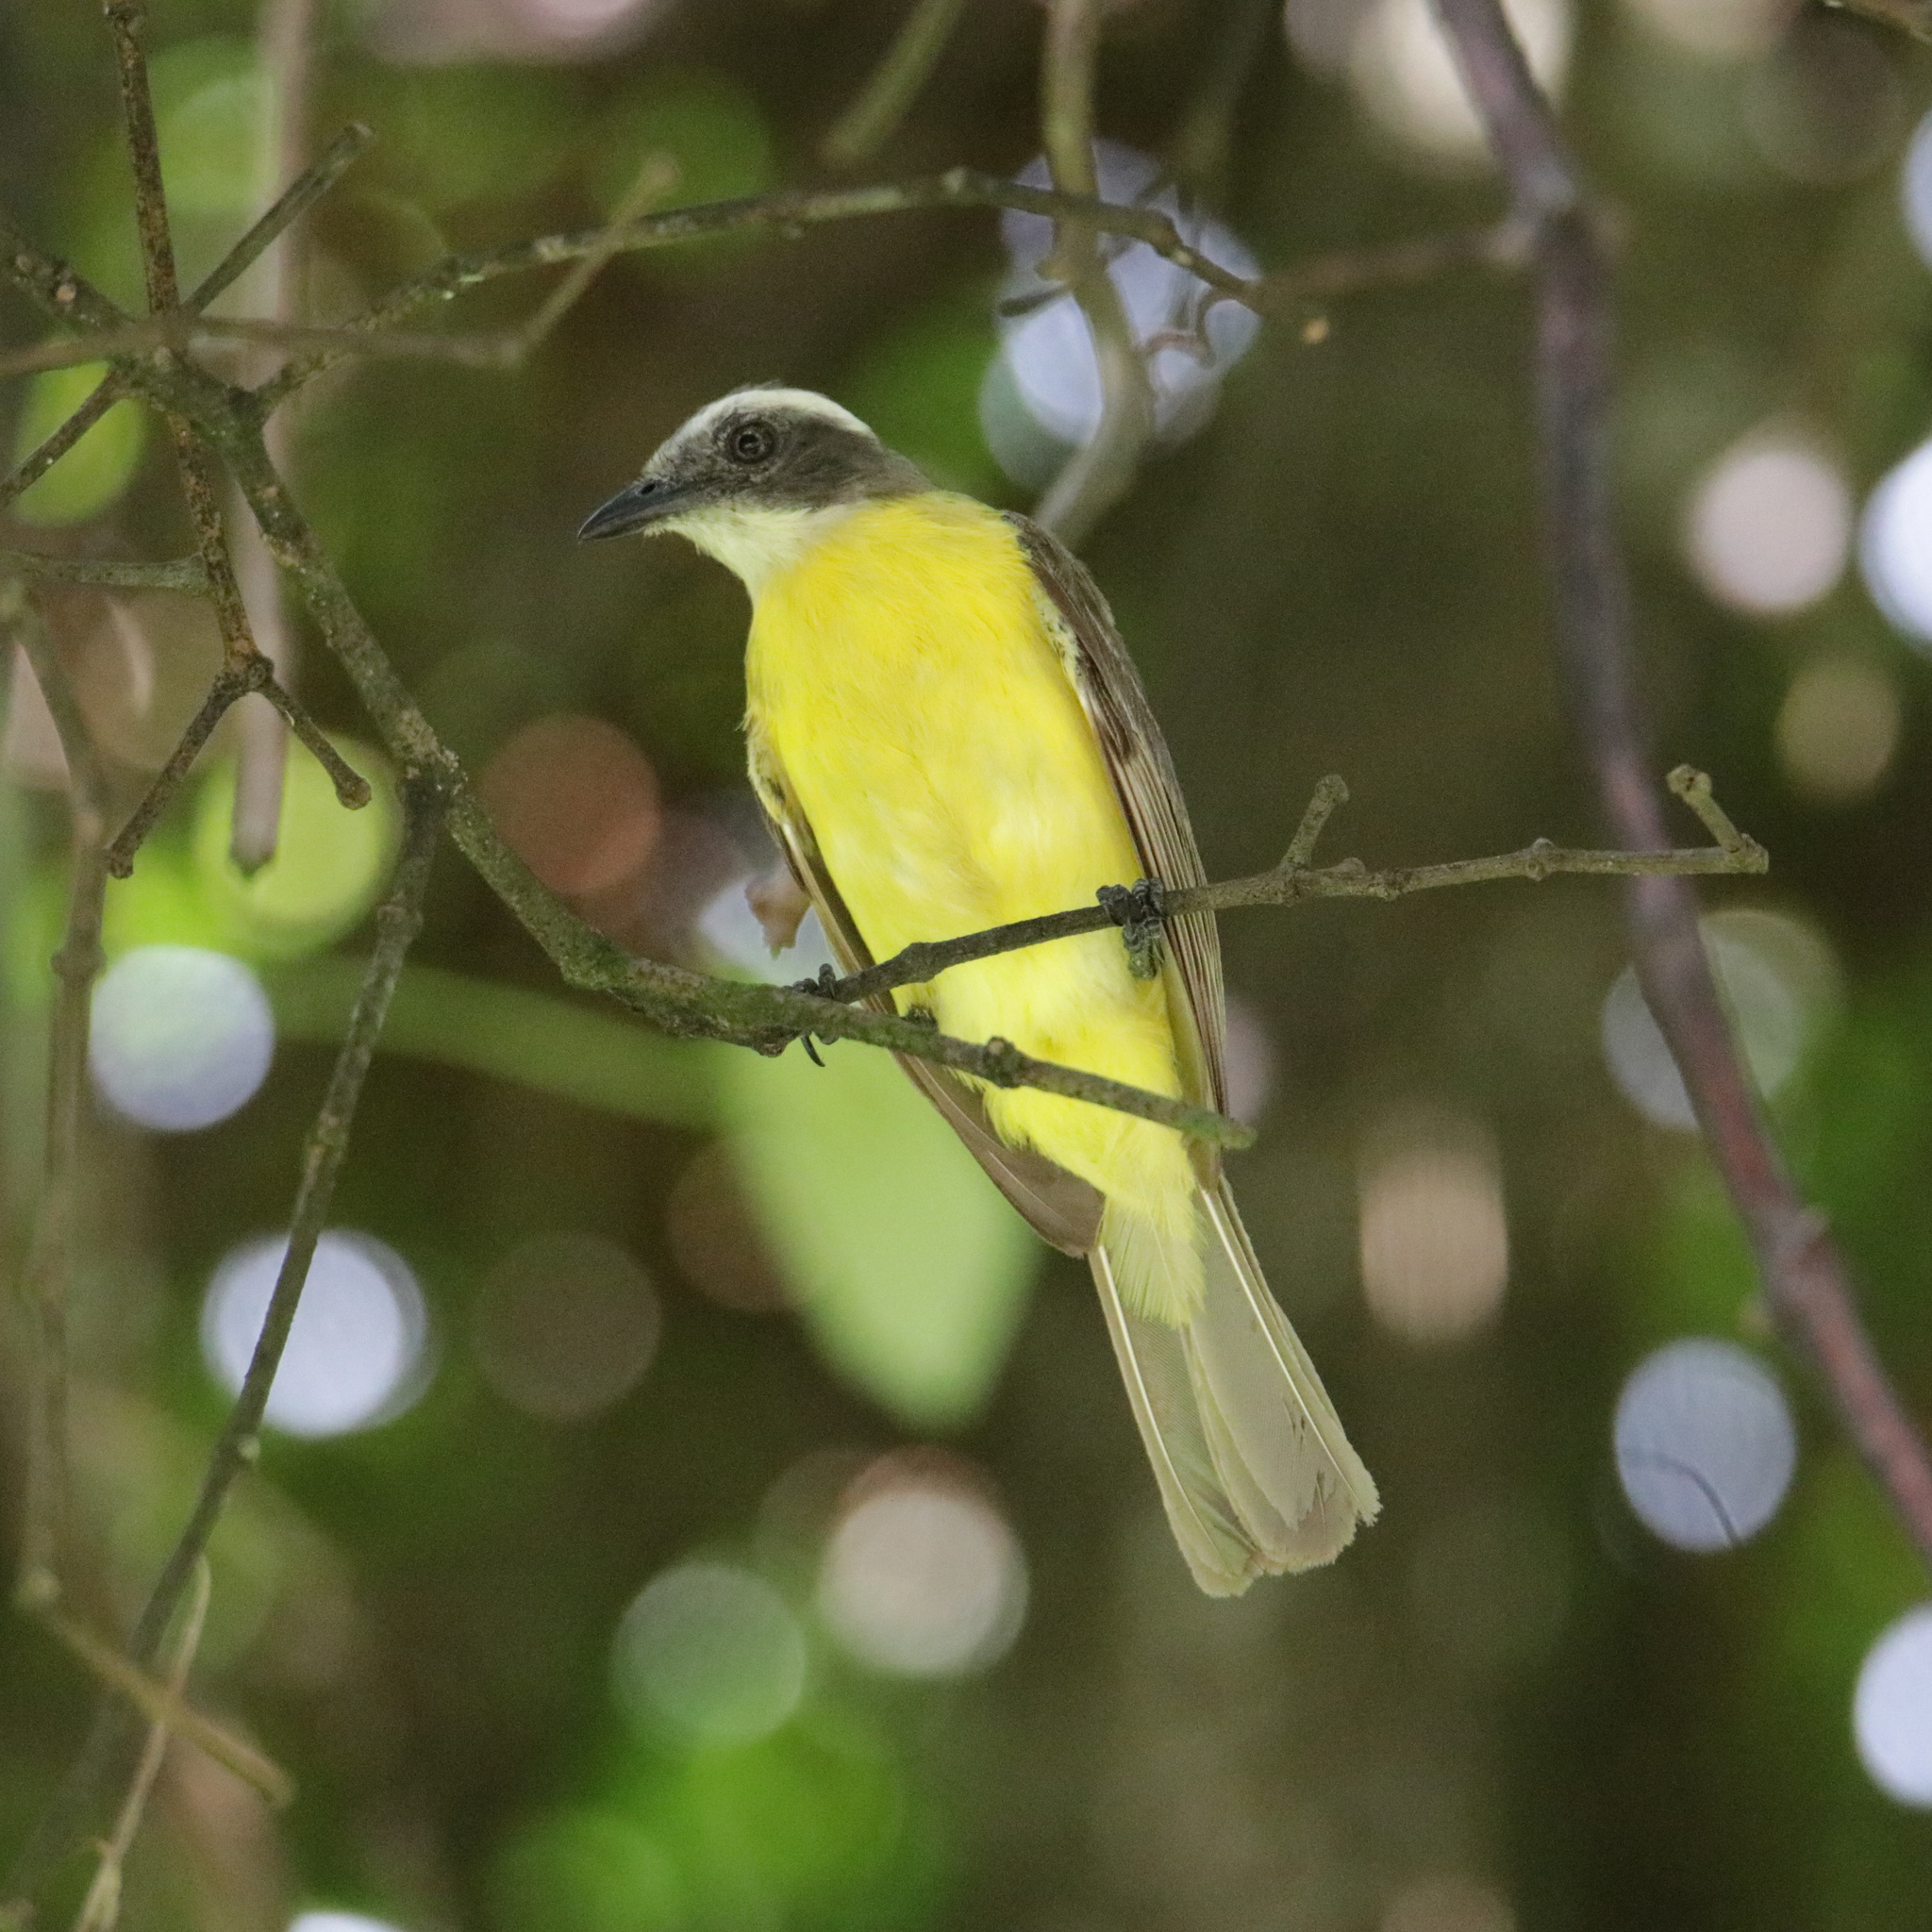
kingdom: Animalia
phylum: Chordata
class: Aves
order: Passeriformes
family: Tyrannidae
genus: Myiozetetes
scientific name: Myiozetetes similis
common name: Social flycatcher
